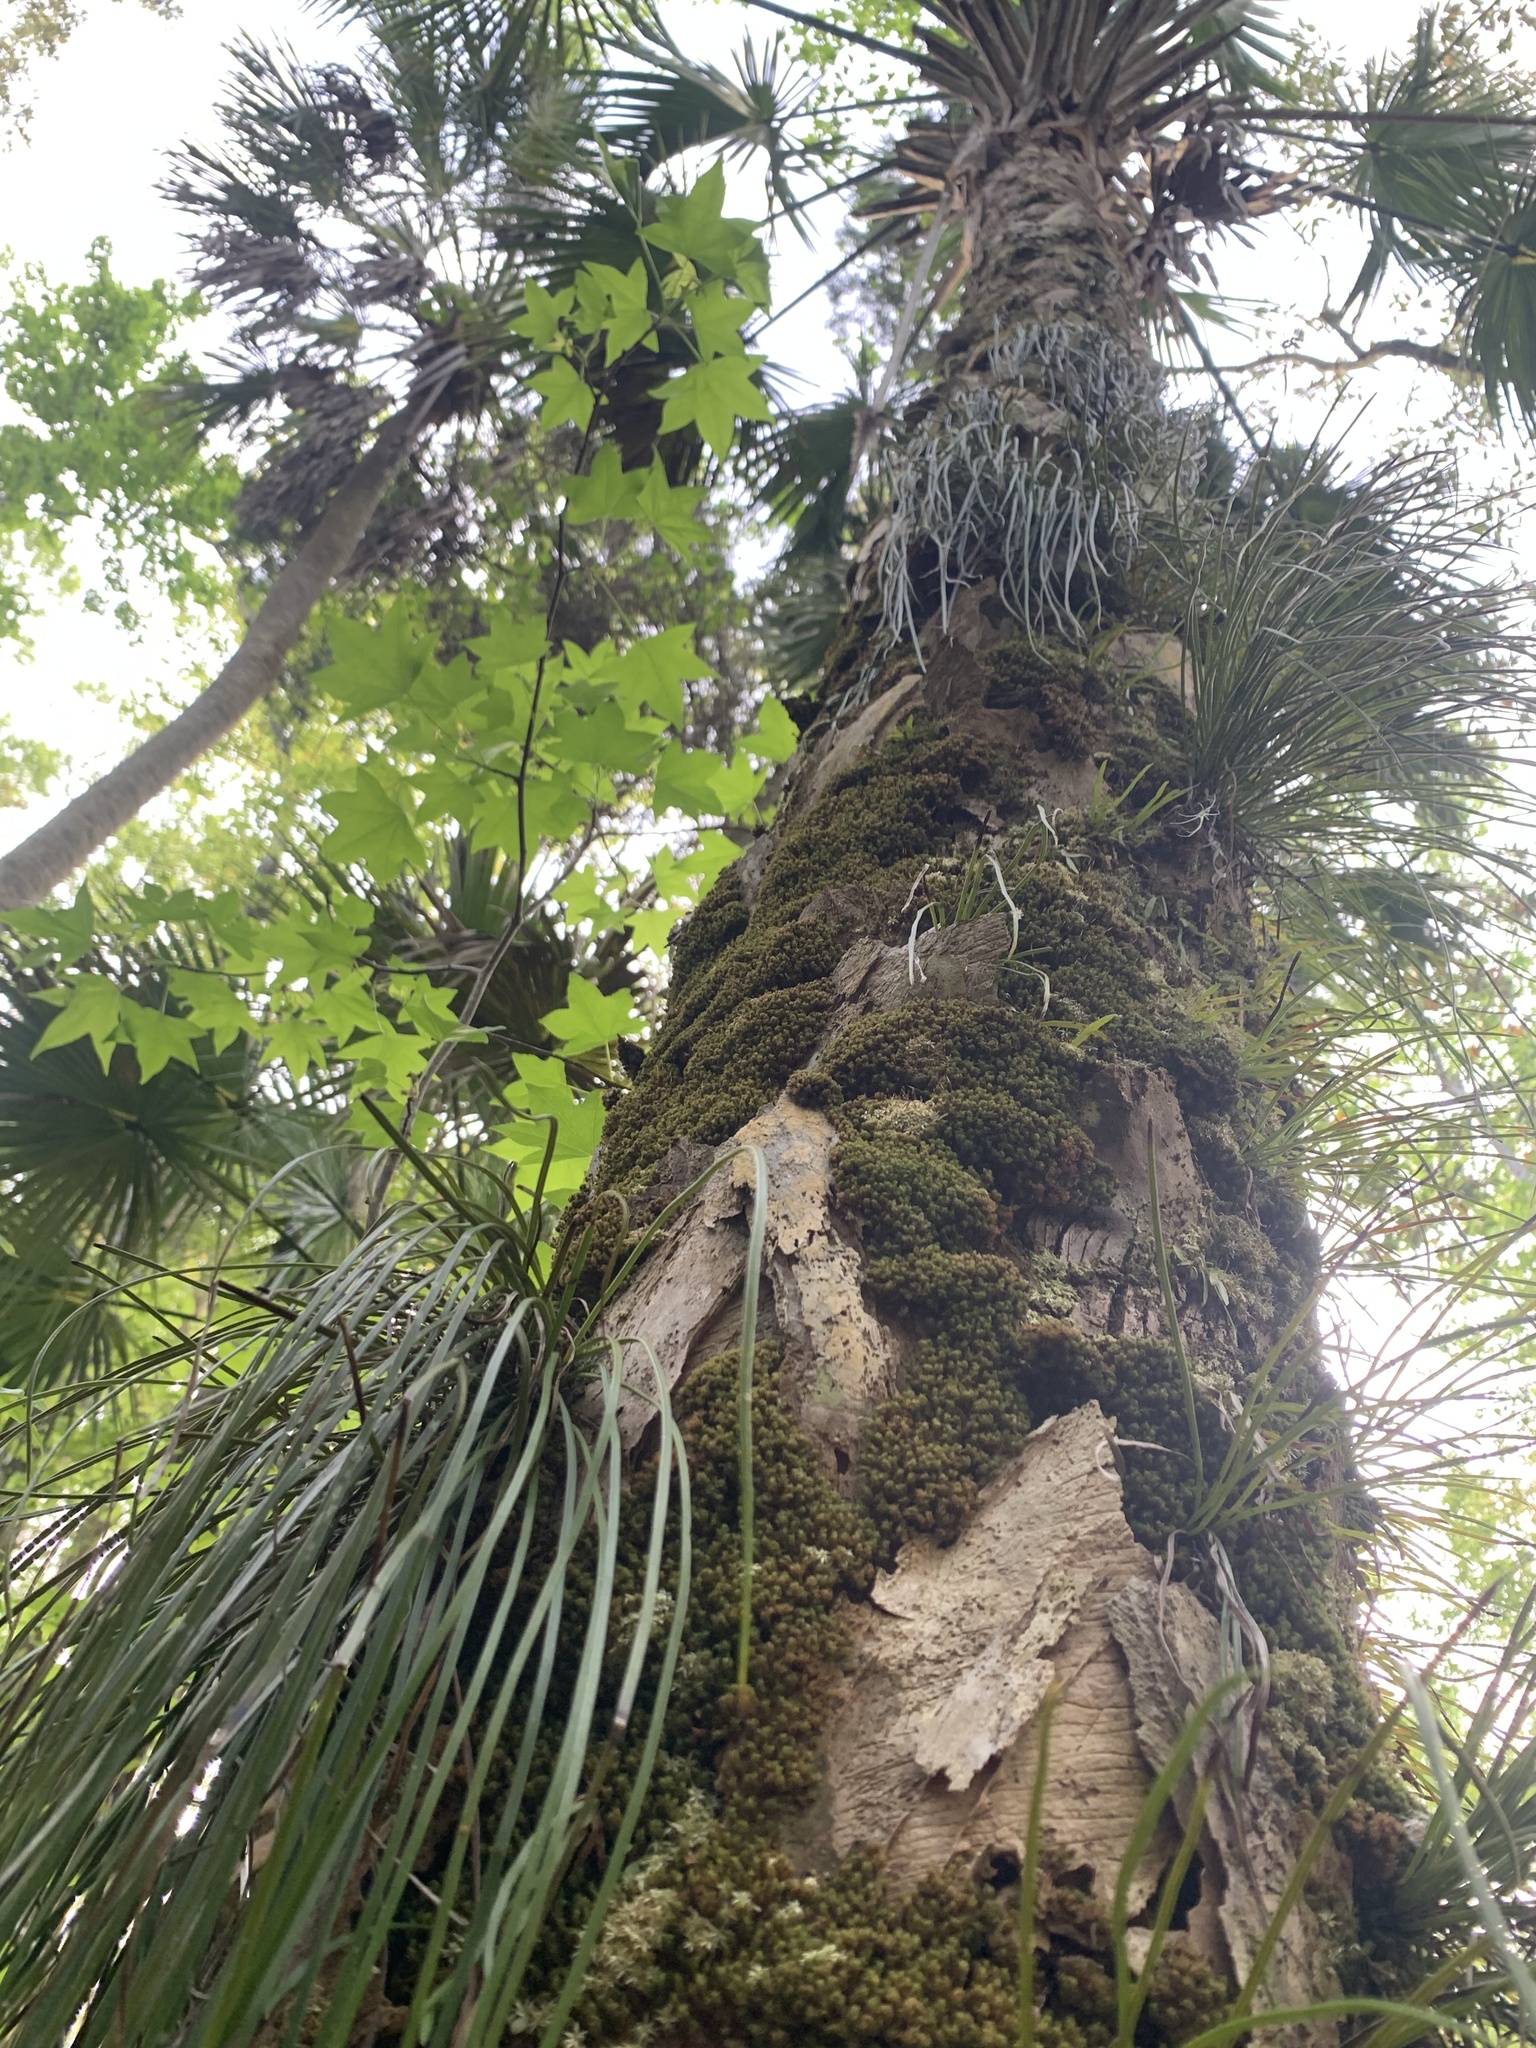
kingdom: Plantae
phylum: Tracheophyta
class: Polypodiopsida
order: Polypodiales
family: Pteridaceae
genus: Vittaria
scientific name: Vittaria lineata
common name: Shoestring fern
